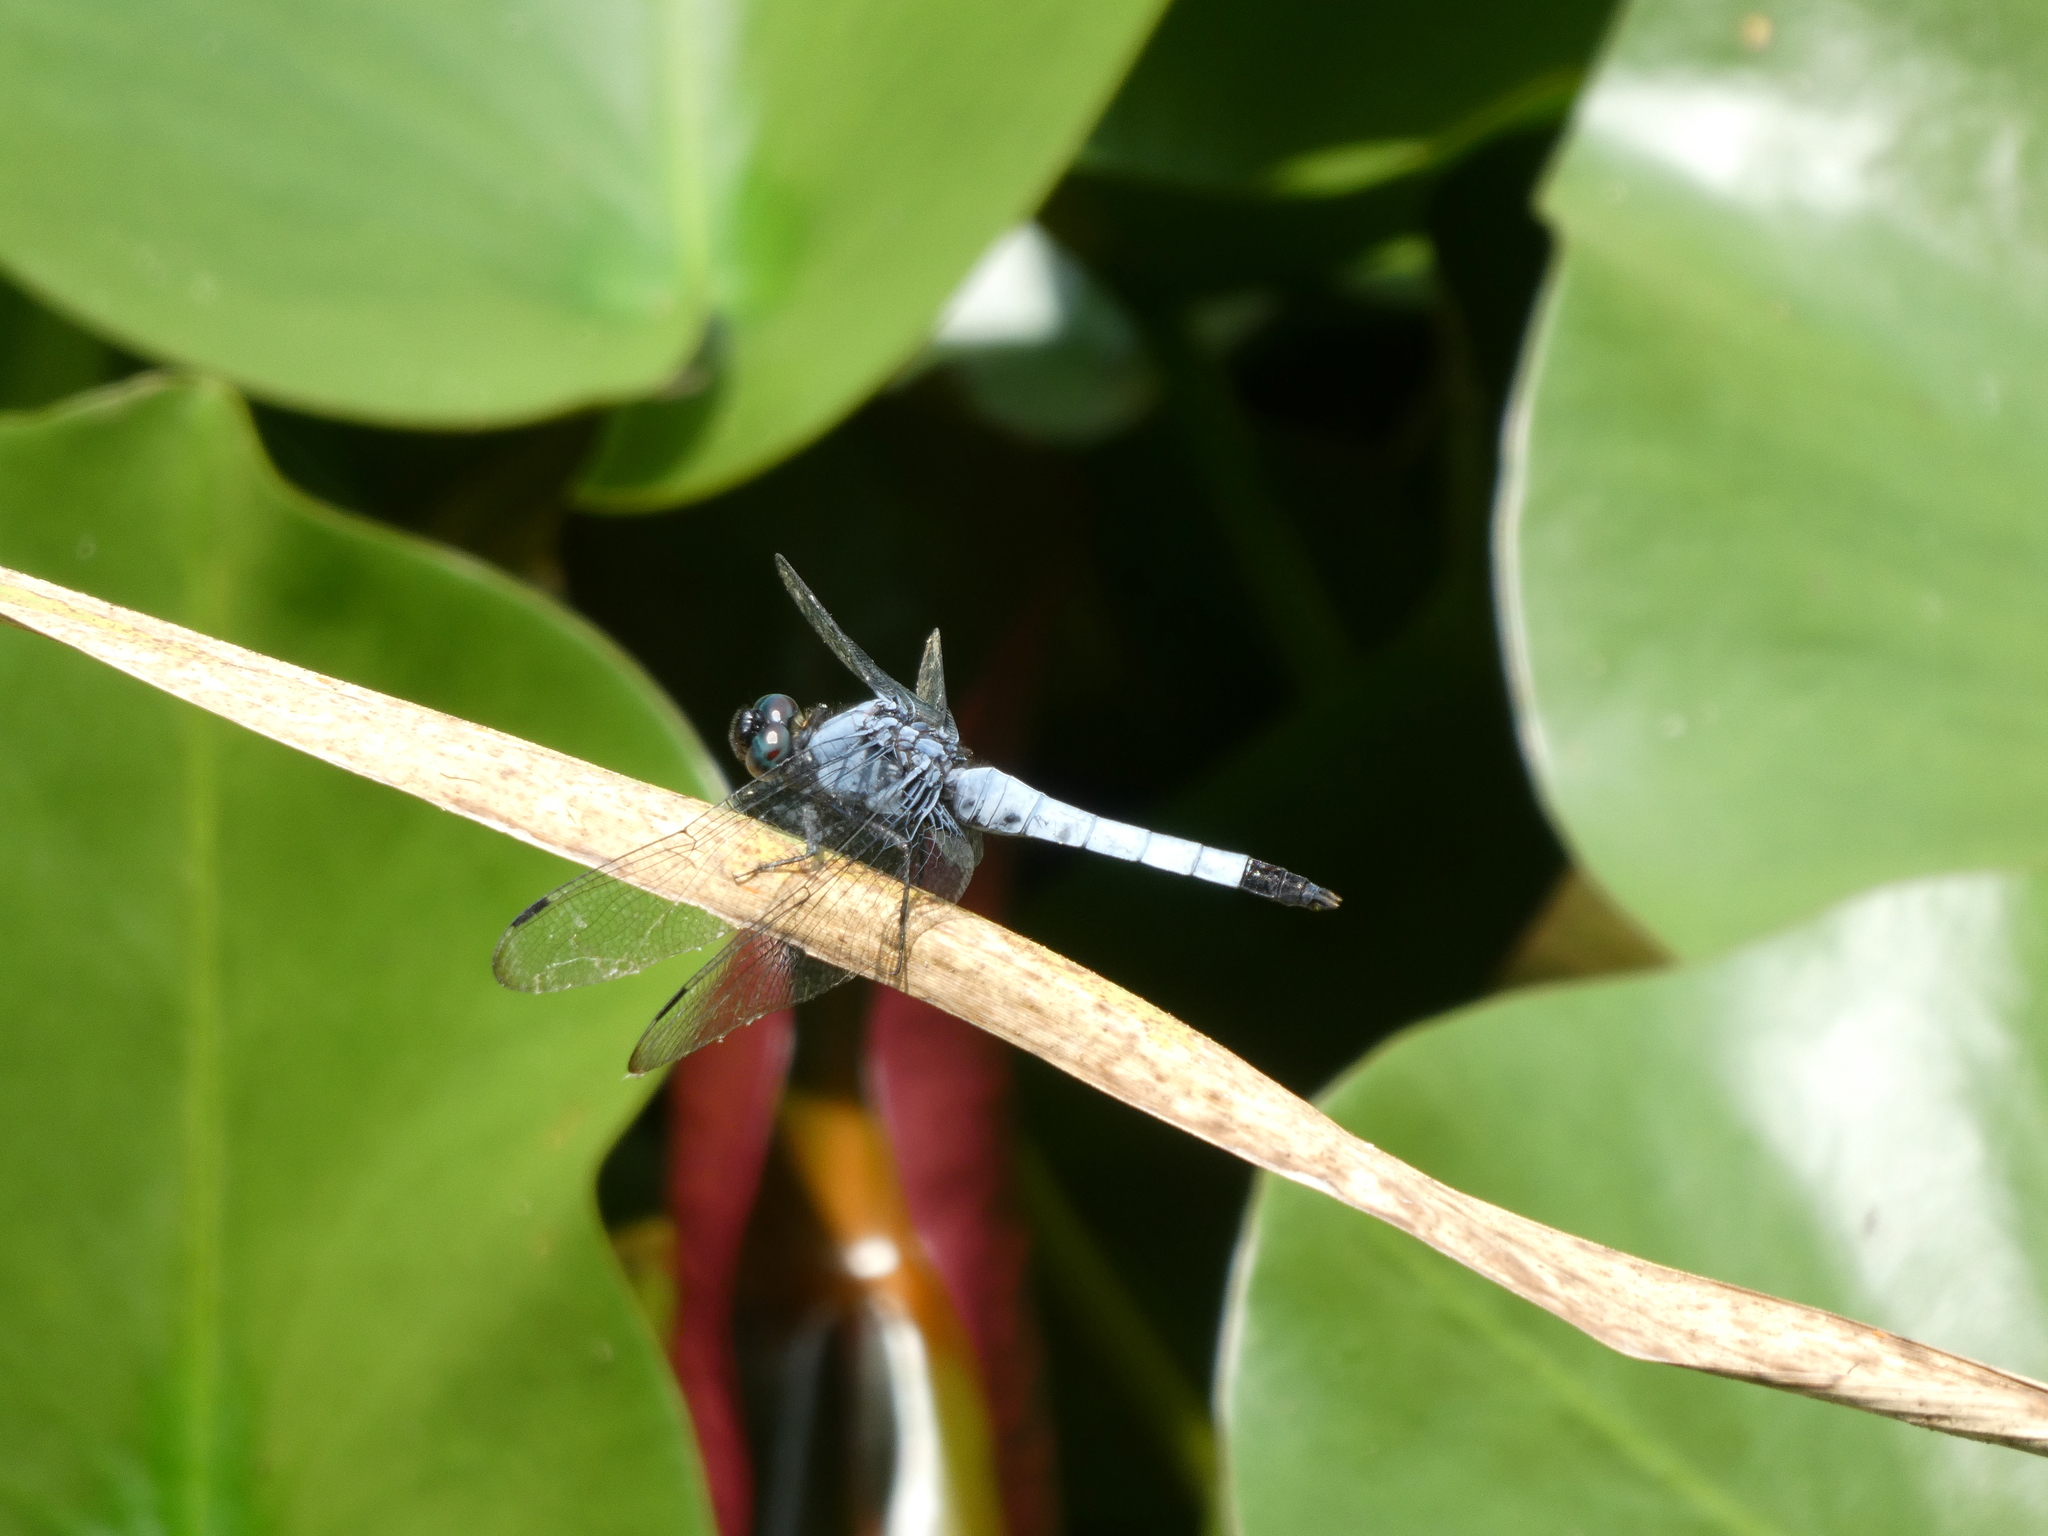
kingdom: Animalia
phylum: Arthropoda
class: Insecta
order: Odonata
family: Libellulidae
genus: Orthetrum
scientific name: Orthetrum melania
